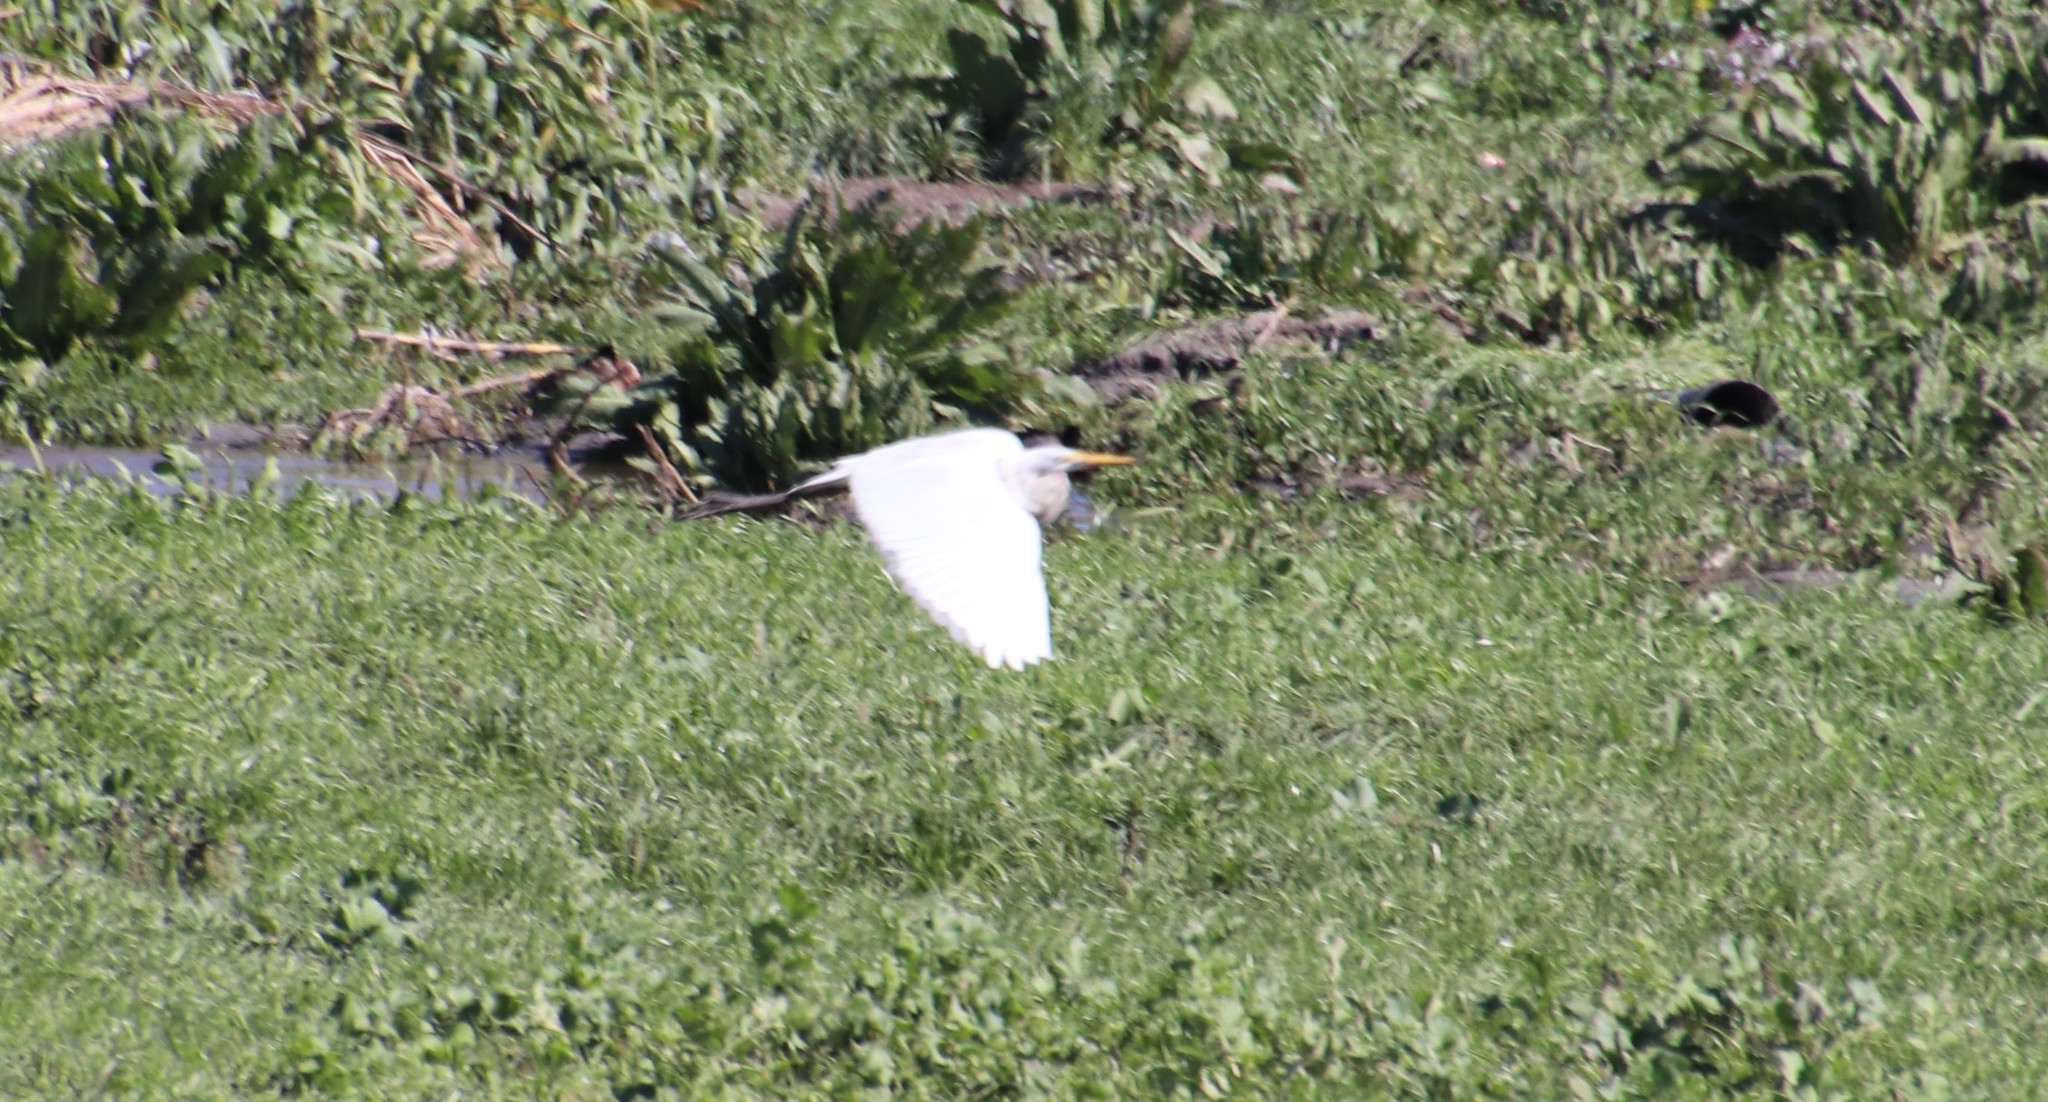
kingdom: Animalia
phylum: Chordata
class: Aves
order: Pelecaniformes
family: Ardeidae
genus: Ardea
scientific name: Ardea alba
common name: Great egret
